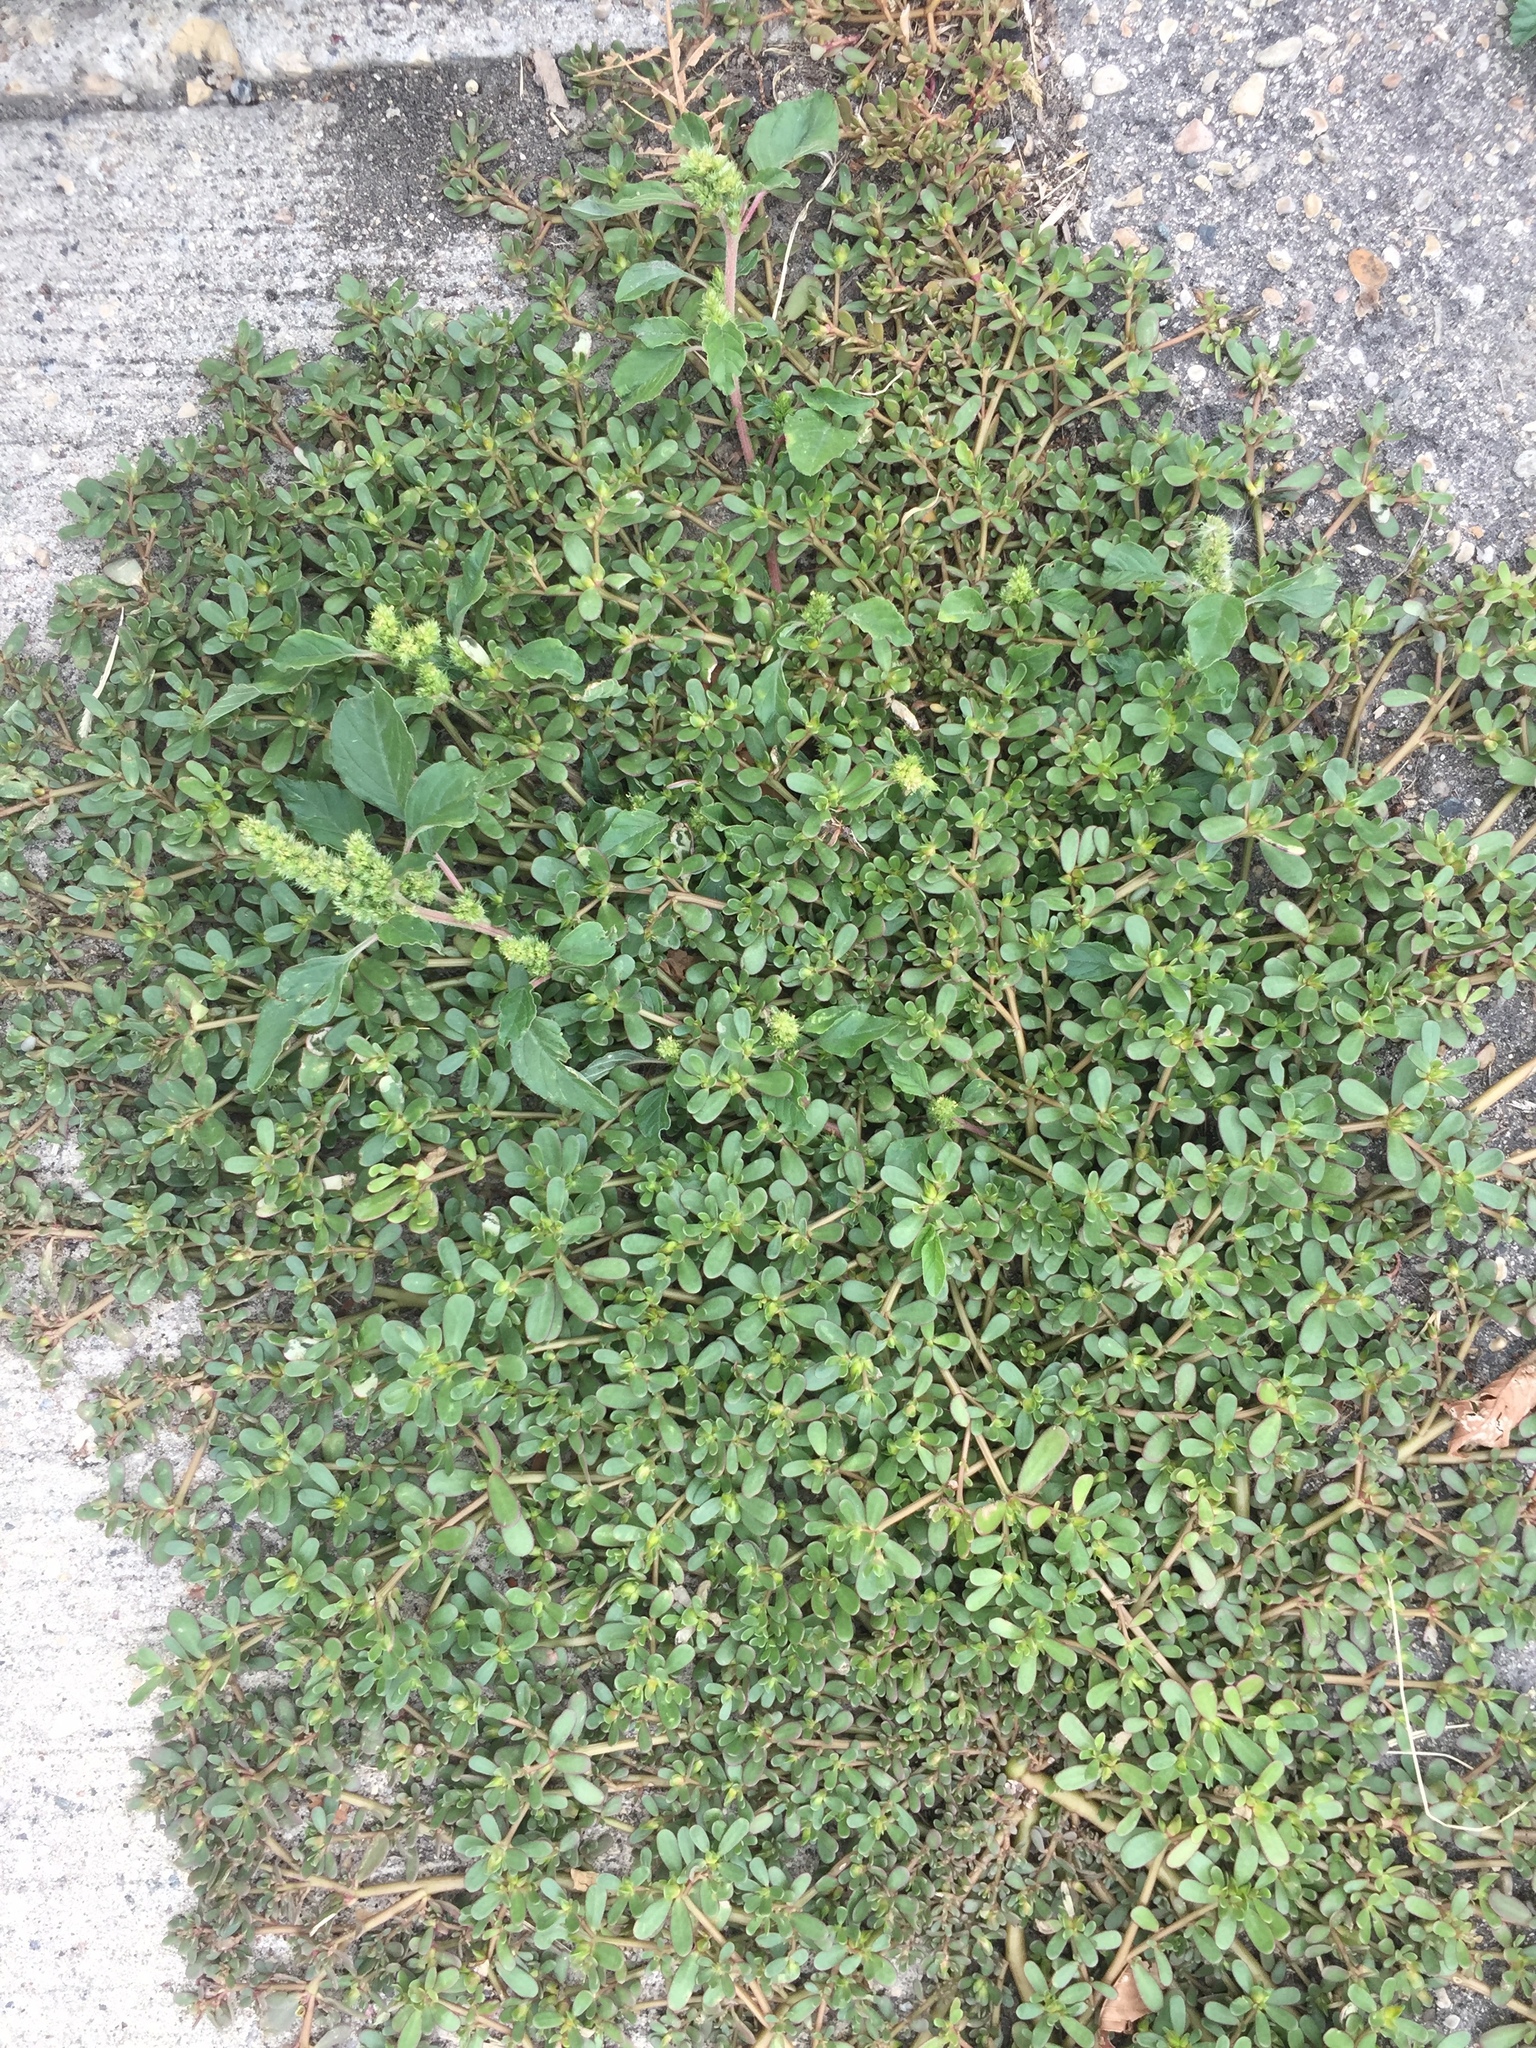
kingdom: Plantae
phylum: Tracheophyta
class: Magnoliopsida
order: Caryophyllales
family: Portulacaceae
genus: Portulaca
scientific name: Portulaca oleracea
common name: Common purslane
